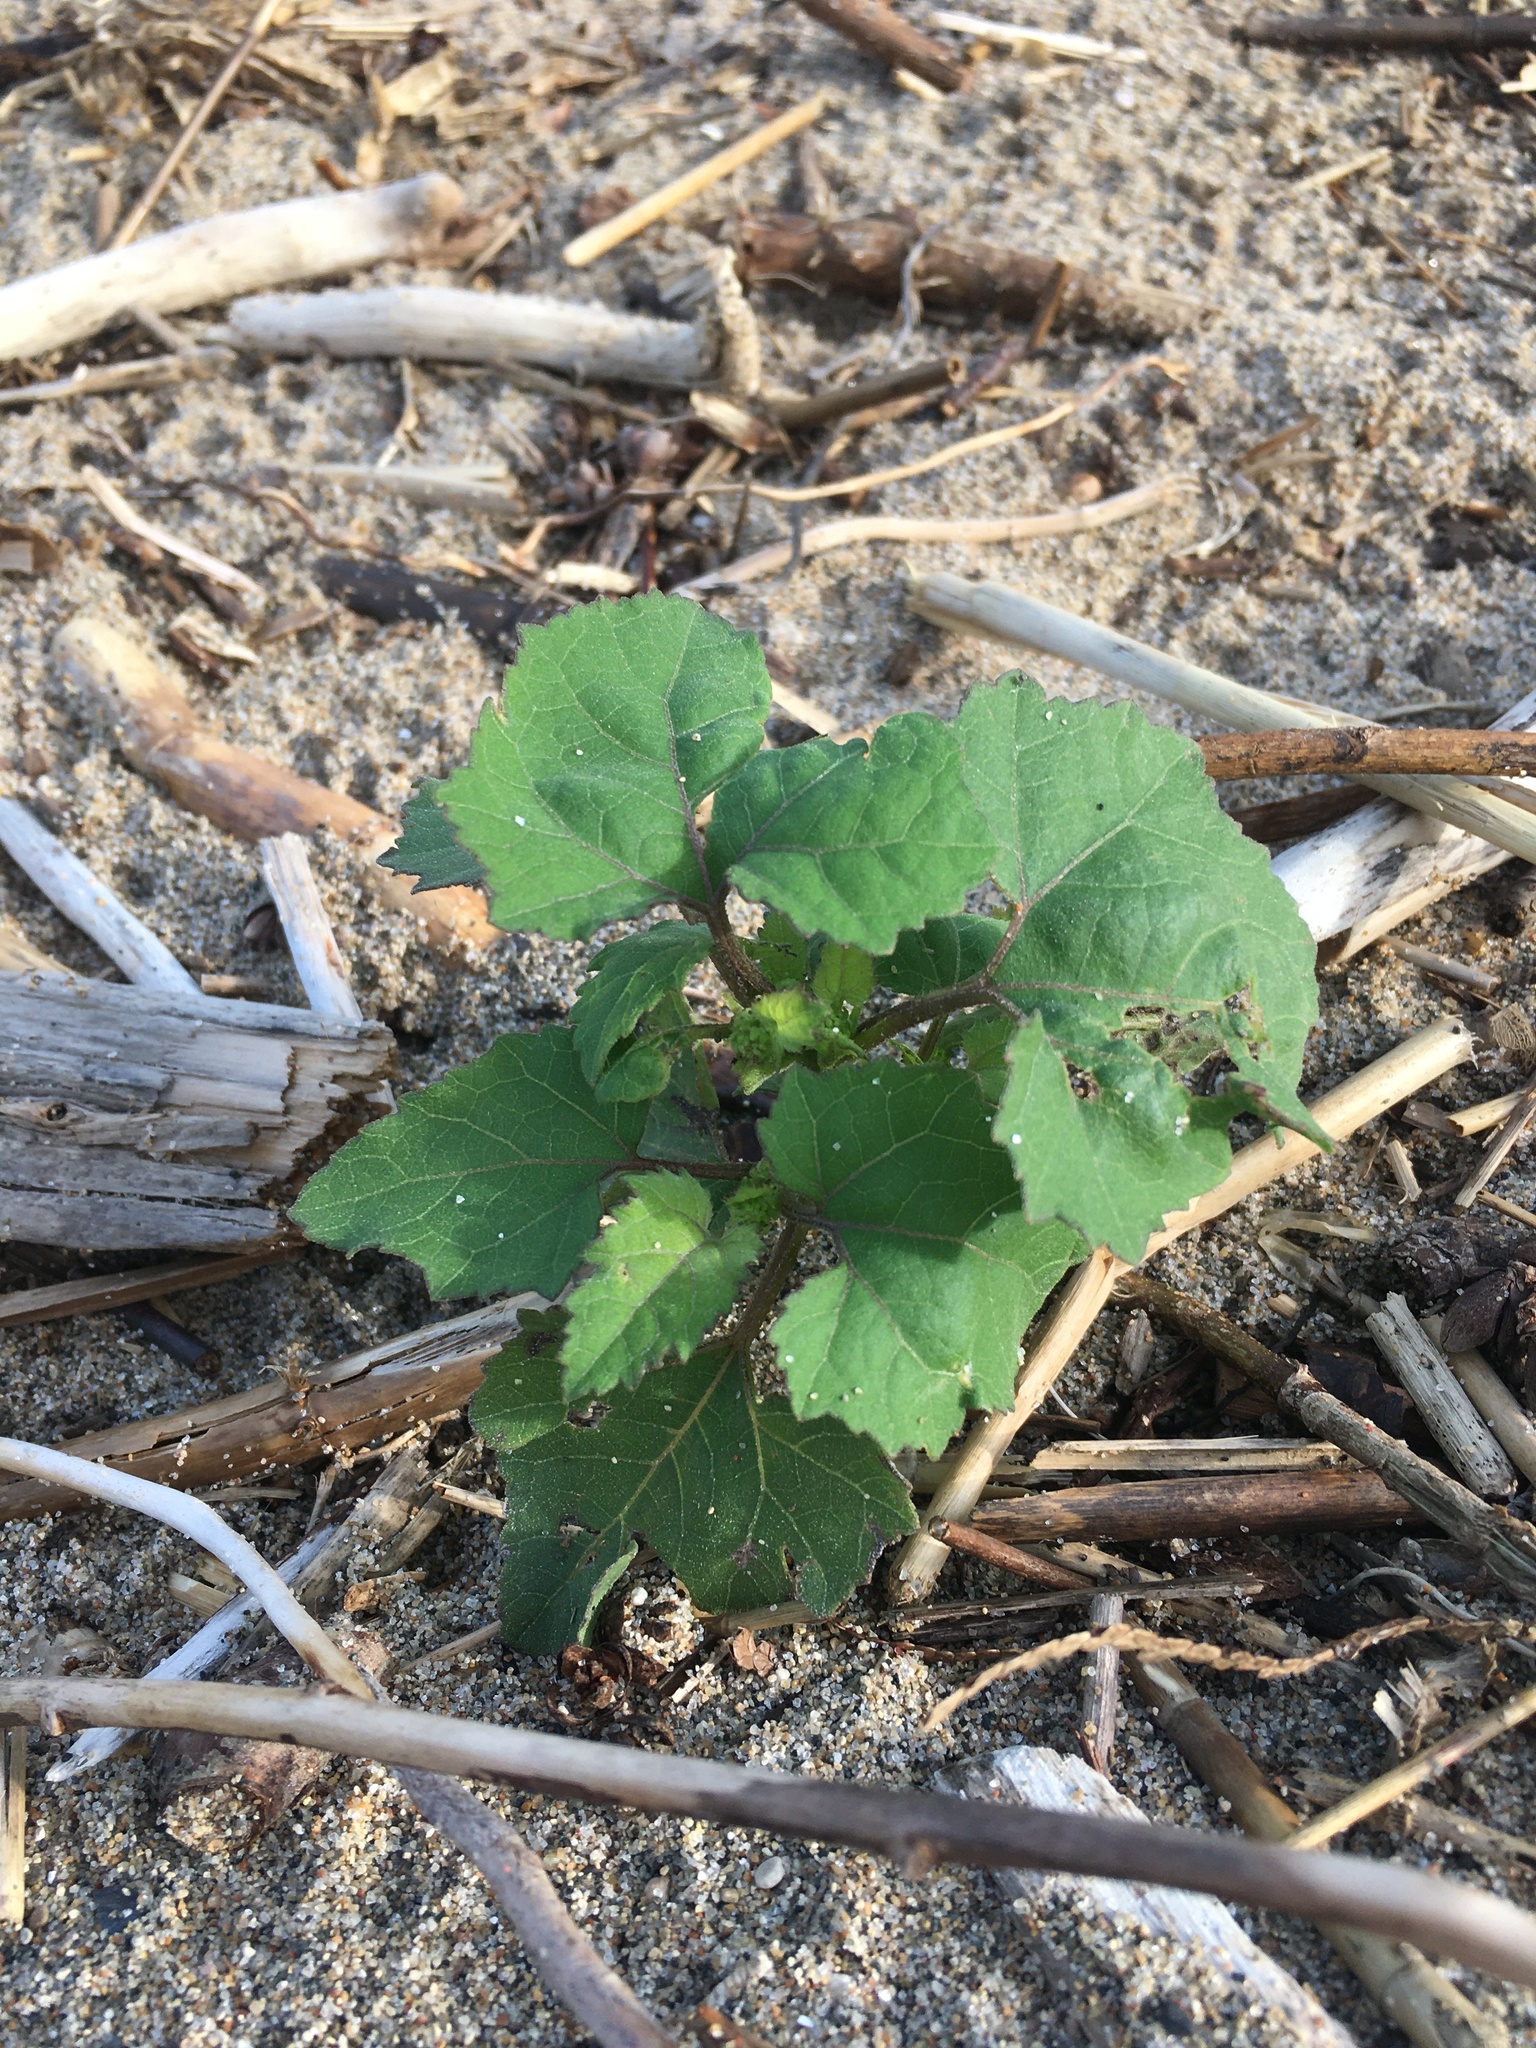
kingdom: Plantae
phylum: Tracheophyta
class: Magnoliopsida
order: Asterales
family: Asteraceae
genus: Xanthium
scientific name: Xanthium strumarium
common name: Rough cocklebur
